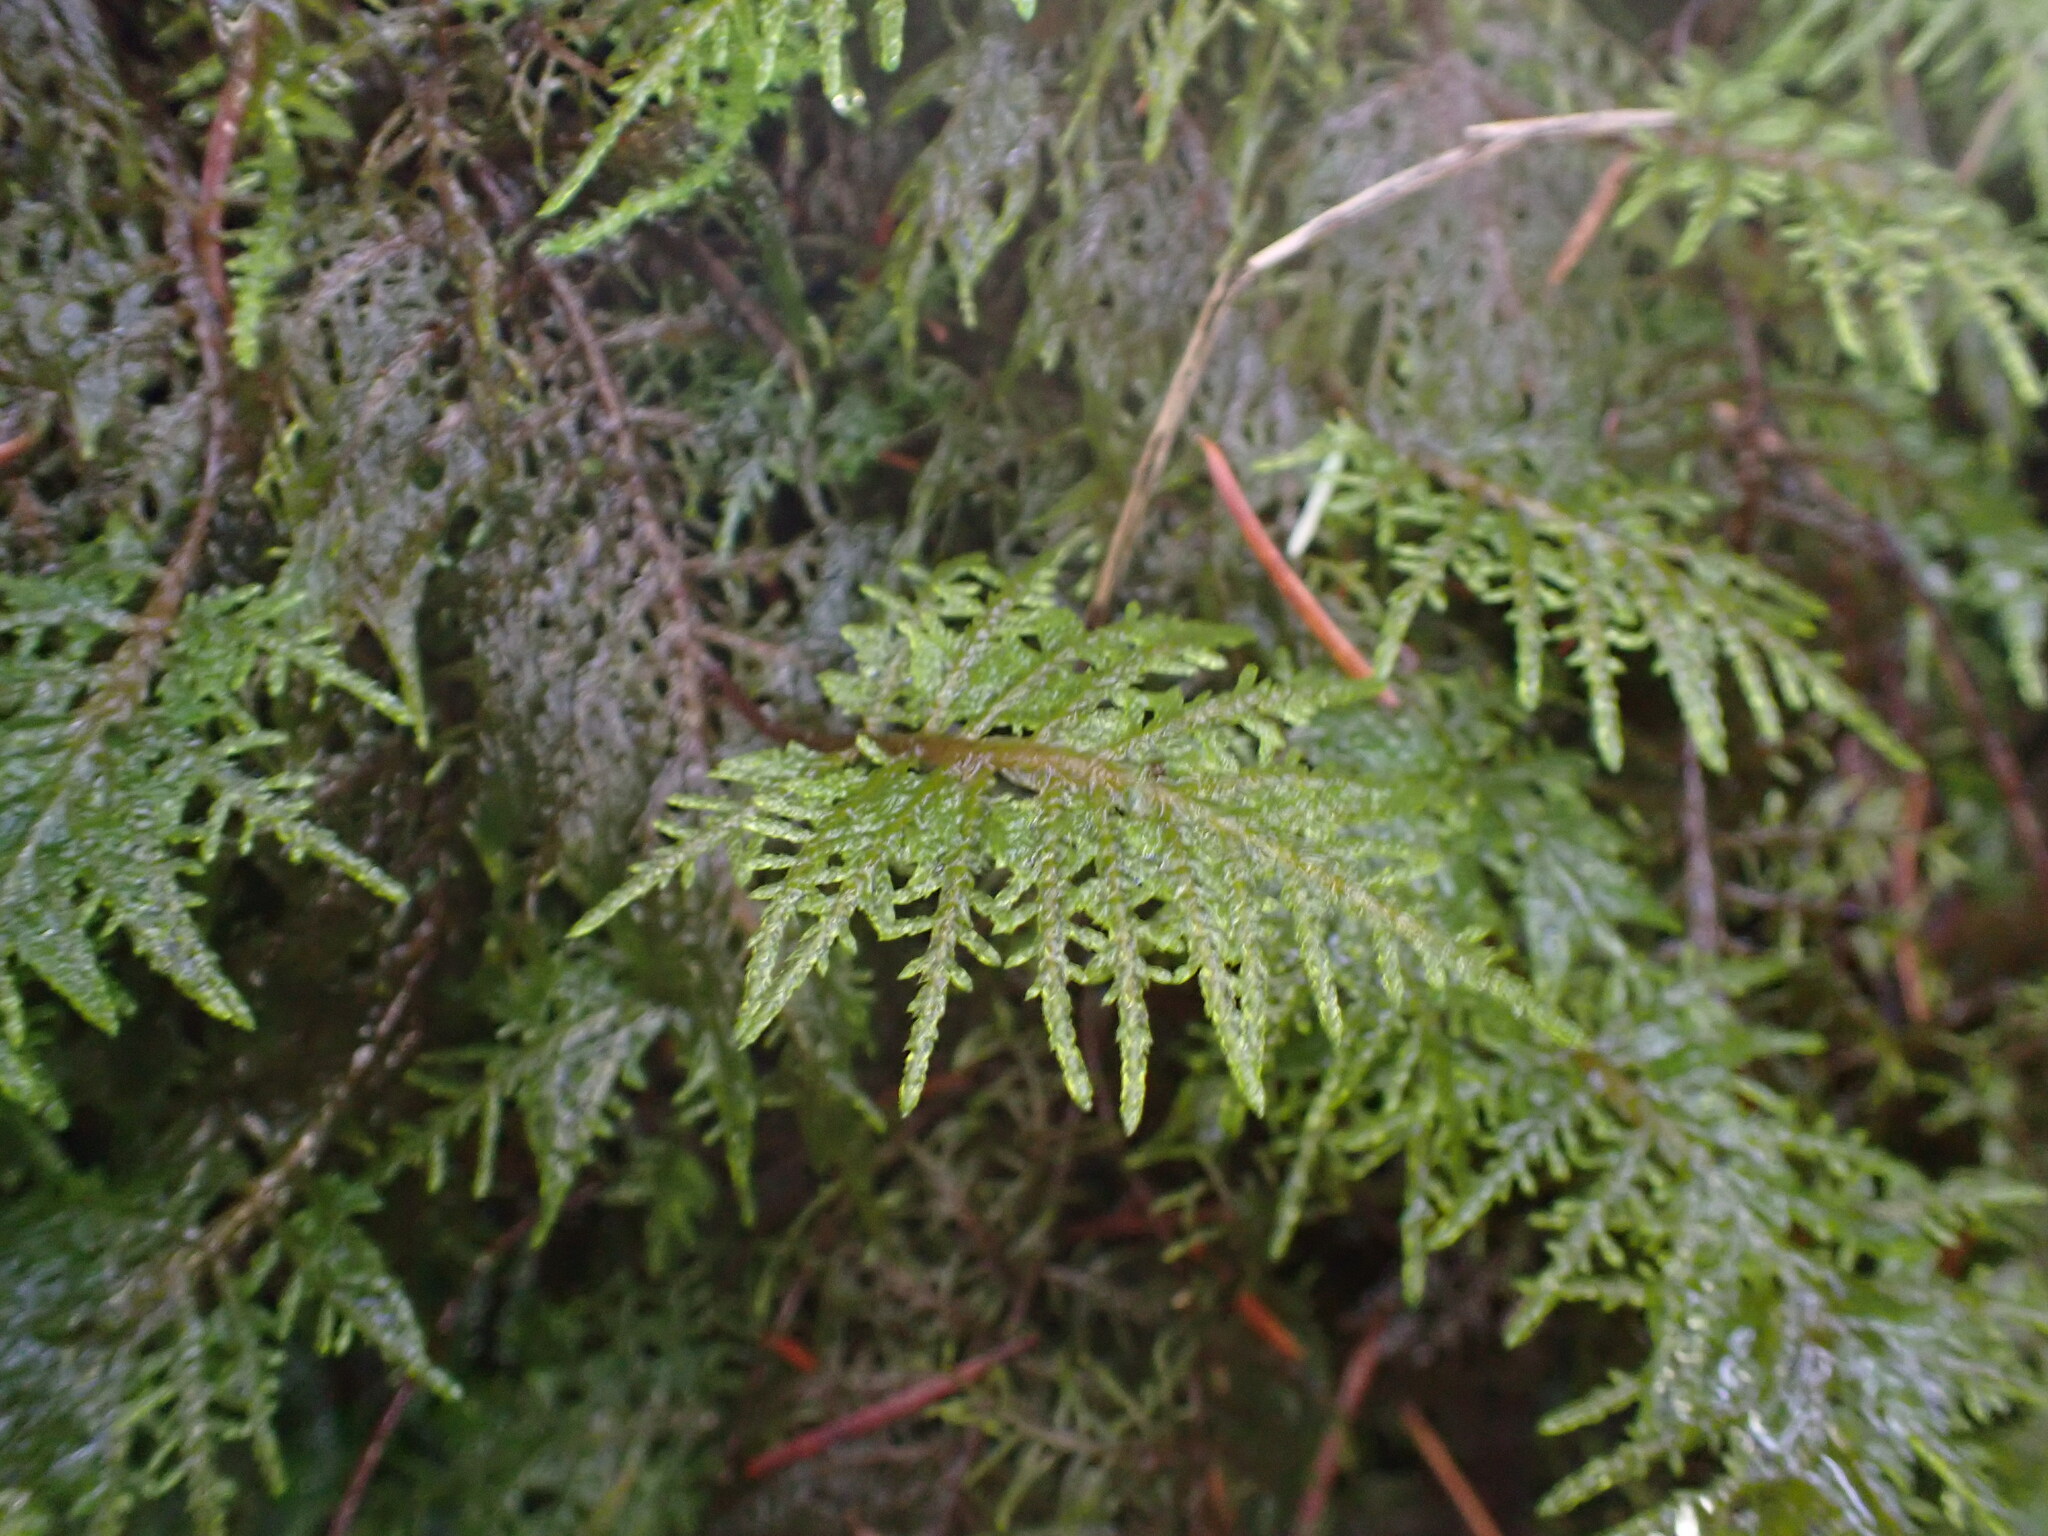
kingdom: Plantae
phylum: Bryophyta
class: Bryopsida
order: Hypnales
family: Hylocomiaceae
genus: Hylocomium
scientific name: Hylocomium splendens
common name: Stairstep moss
